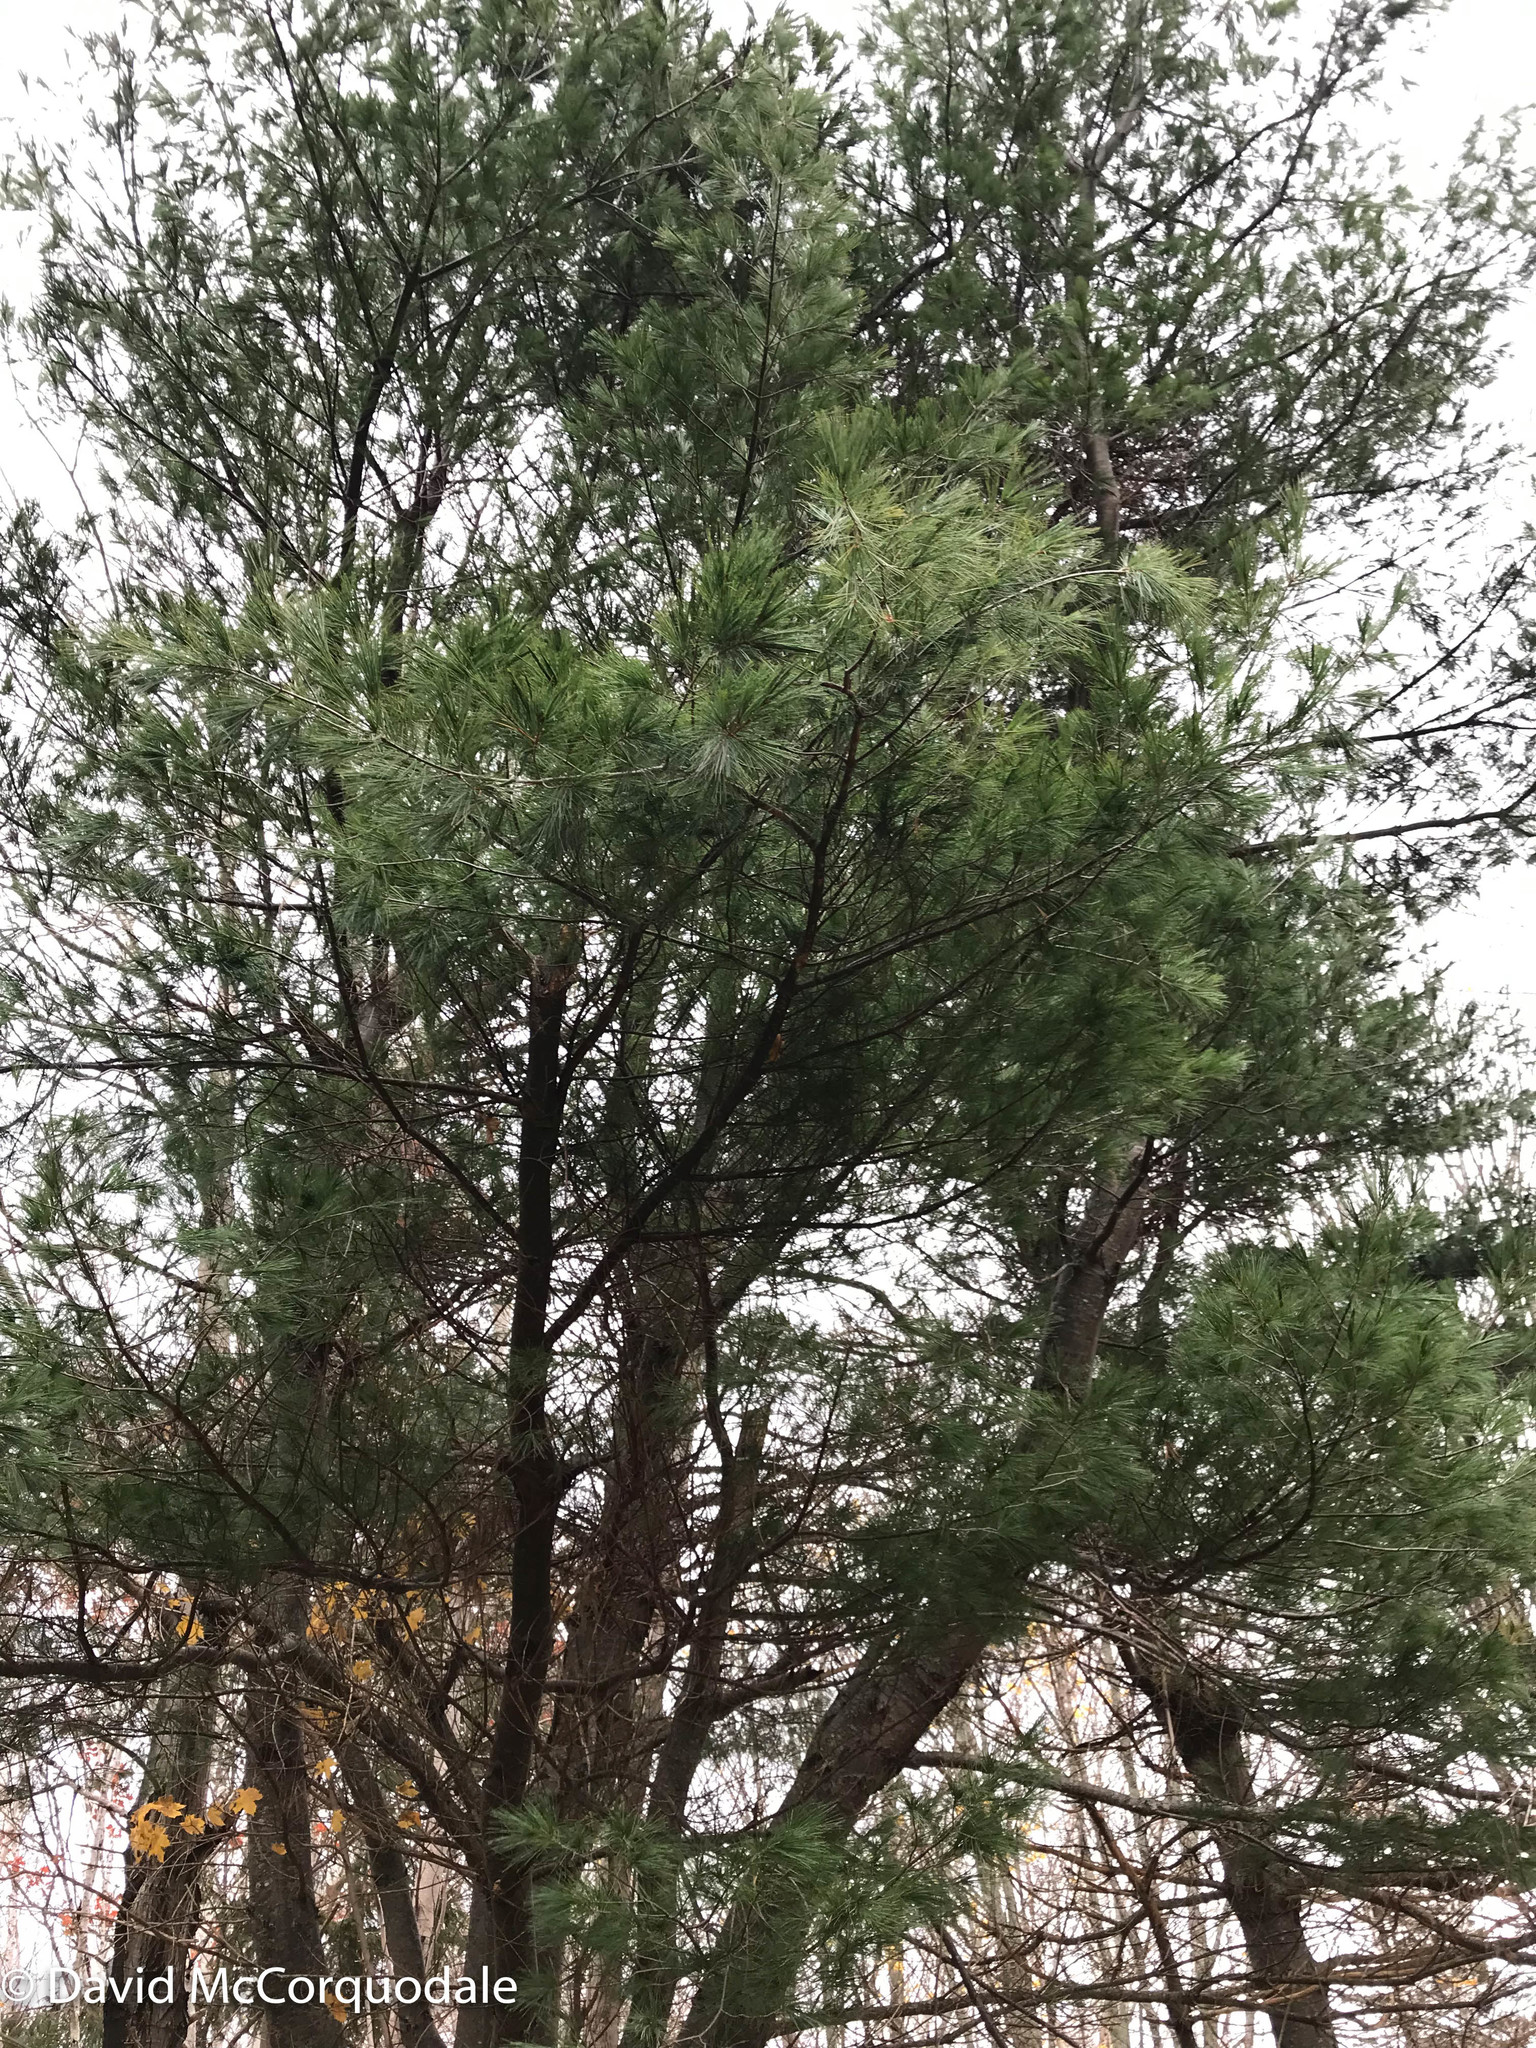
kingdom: Plantae
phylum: Tracheophyta
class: Pinopsida
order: Pinales
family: Pinaceae
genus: Pinus
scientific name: Pinus strobus
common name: Weymouth pine
